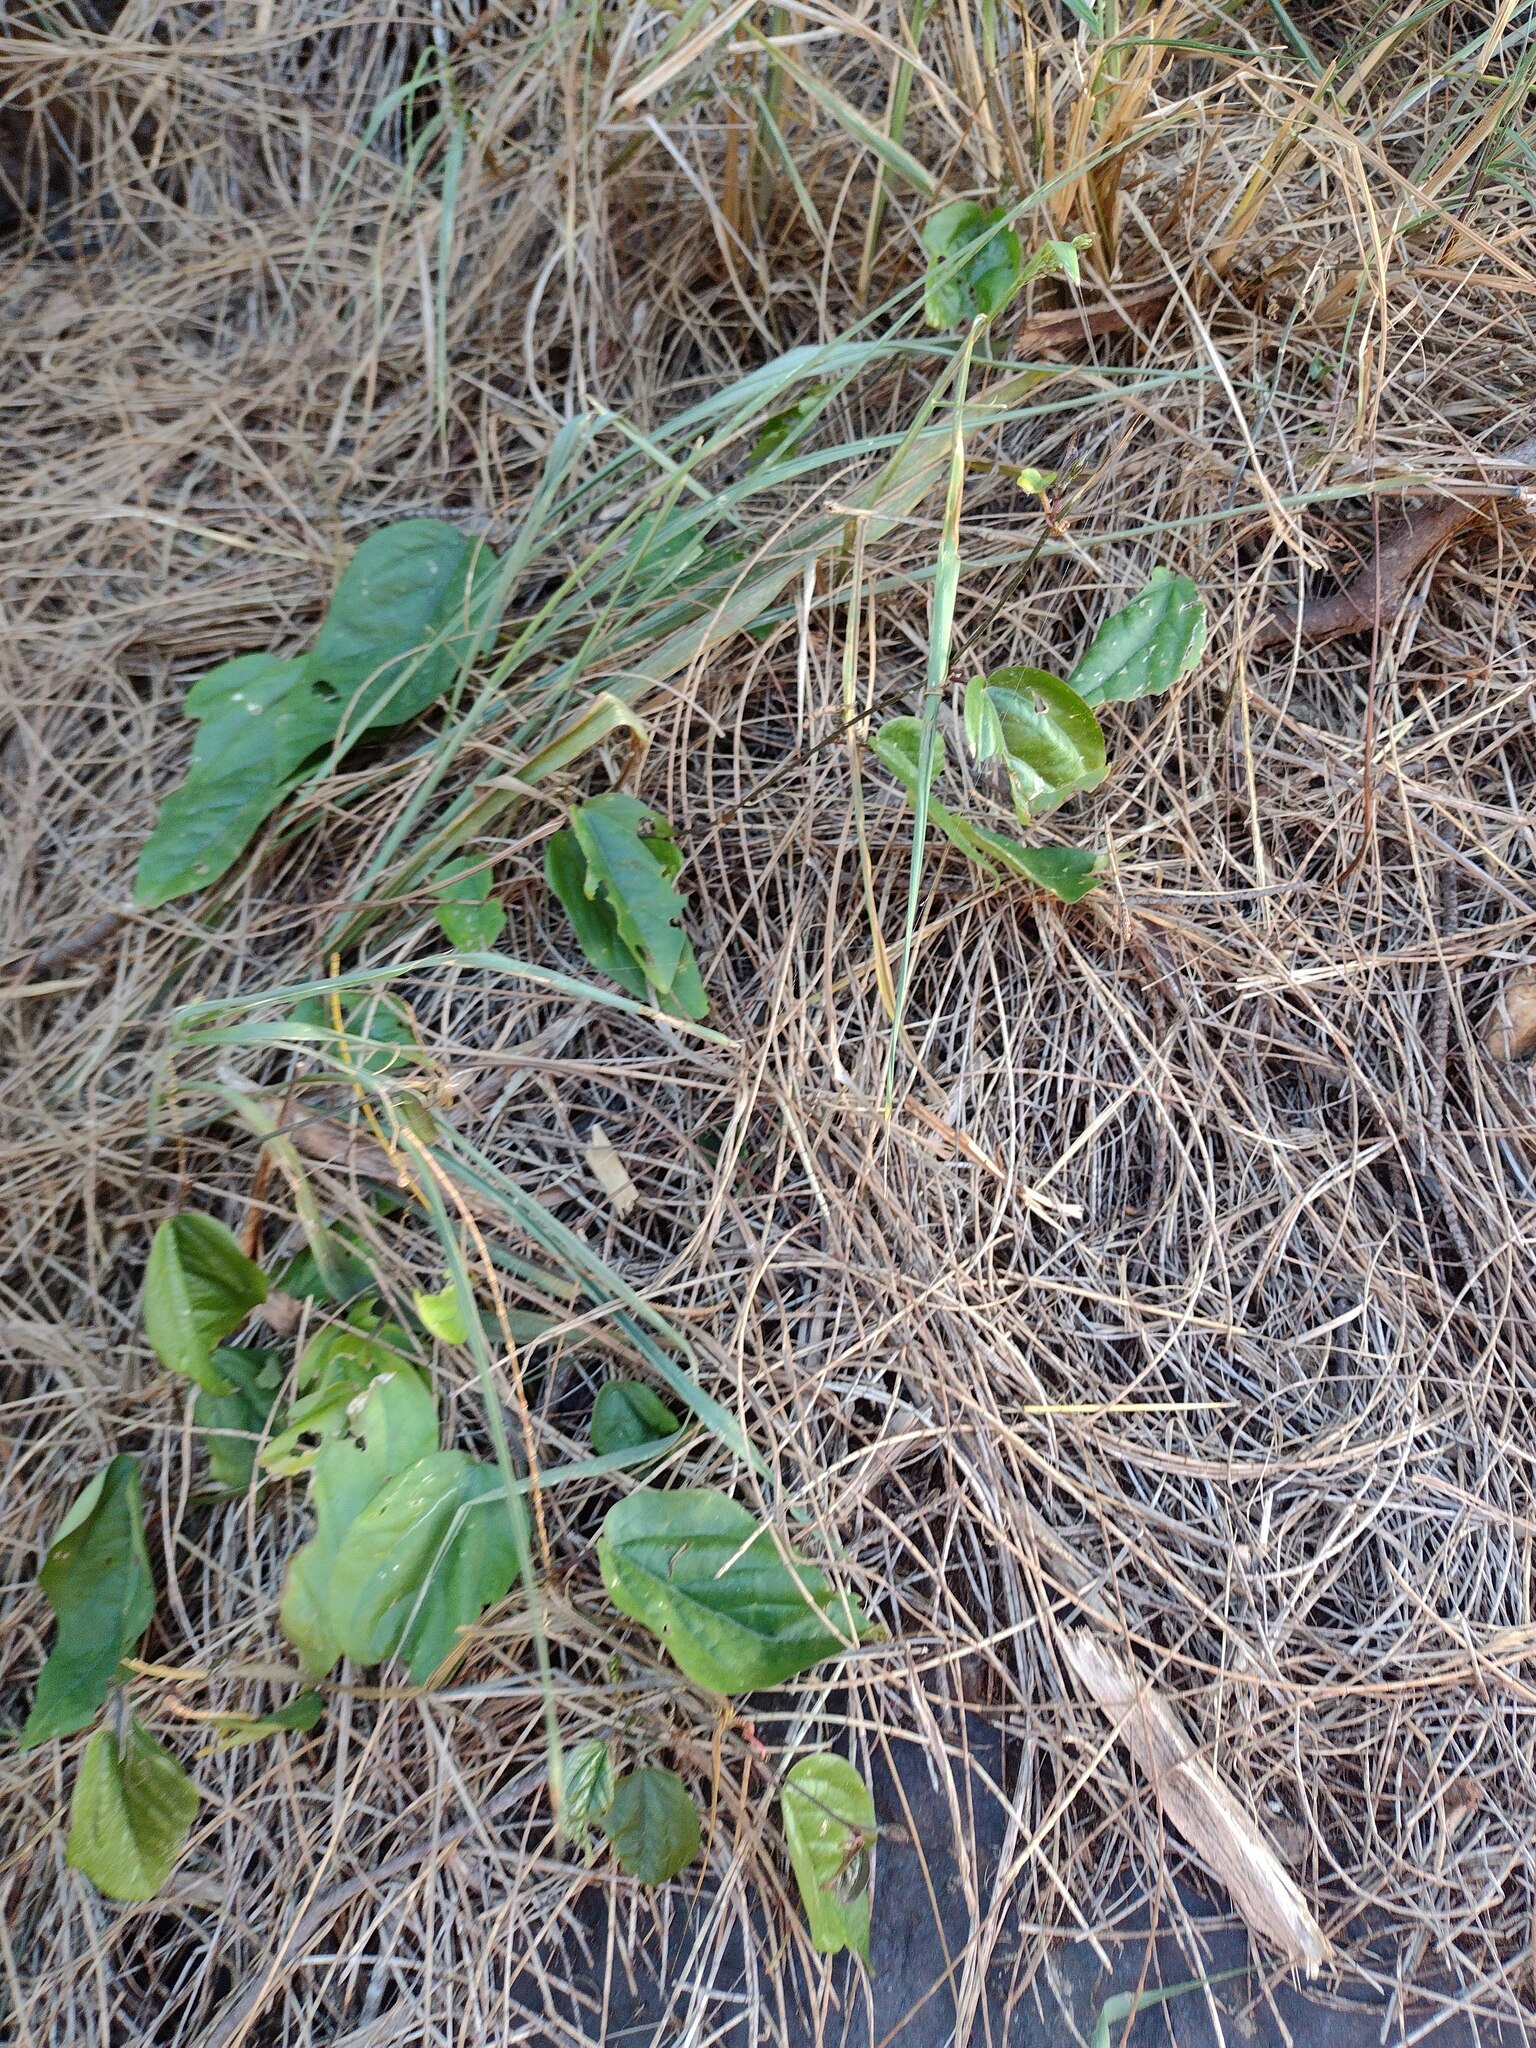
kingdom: Plantae
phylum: Tracheophyta
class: Magnoliopsida
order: Malpighiales
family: Passifloraceae
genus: Passiflora
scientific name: Passiflora suberosa
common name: Wild passionfruit
